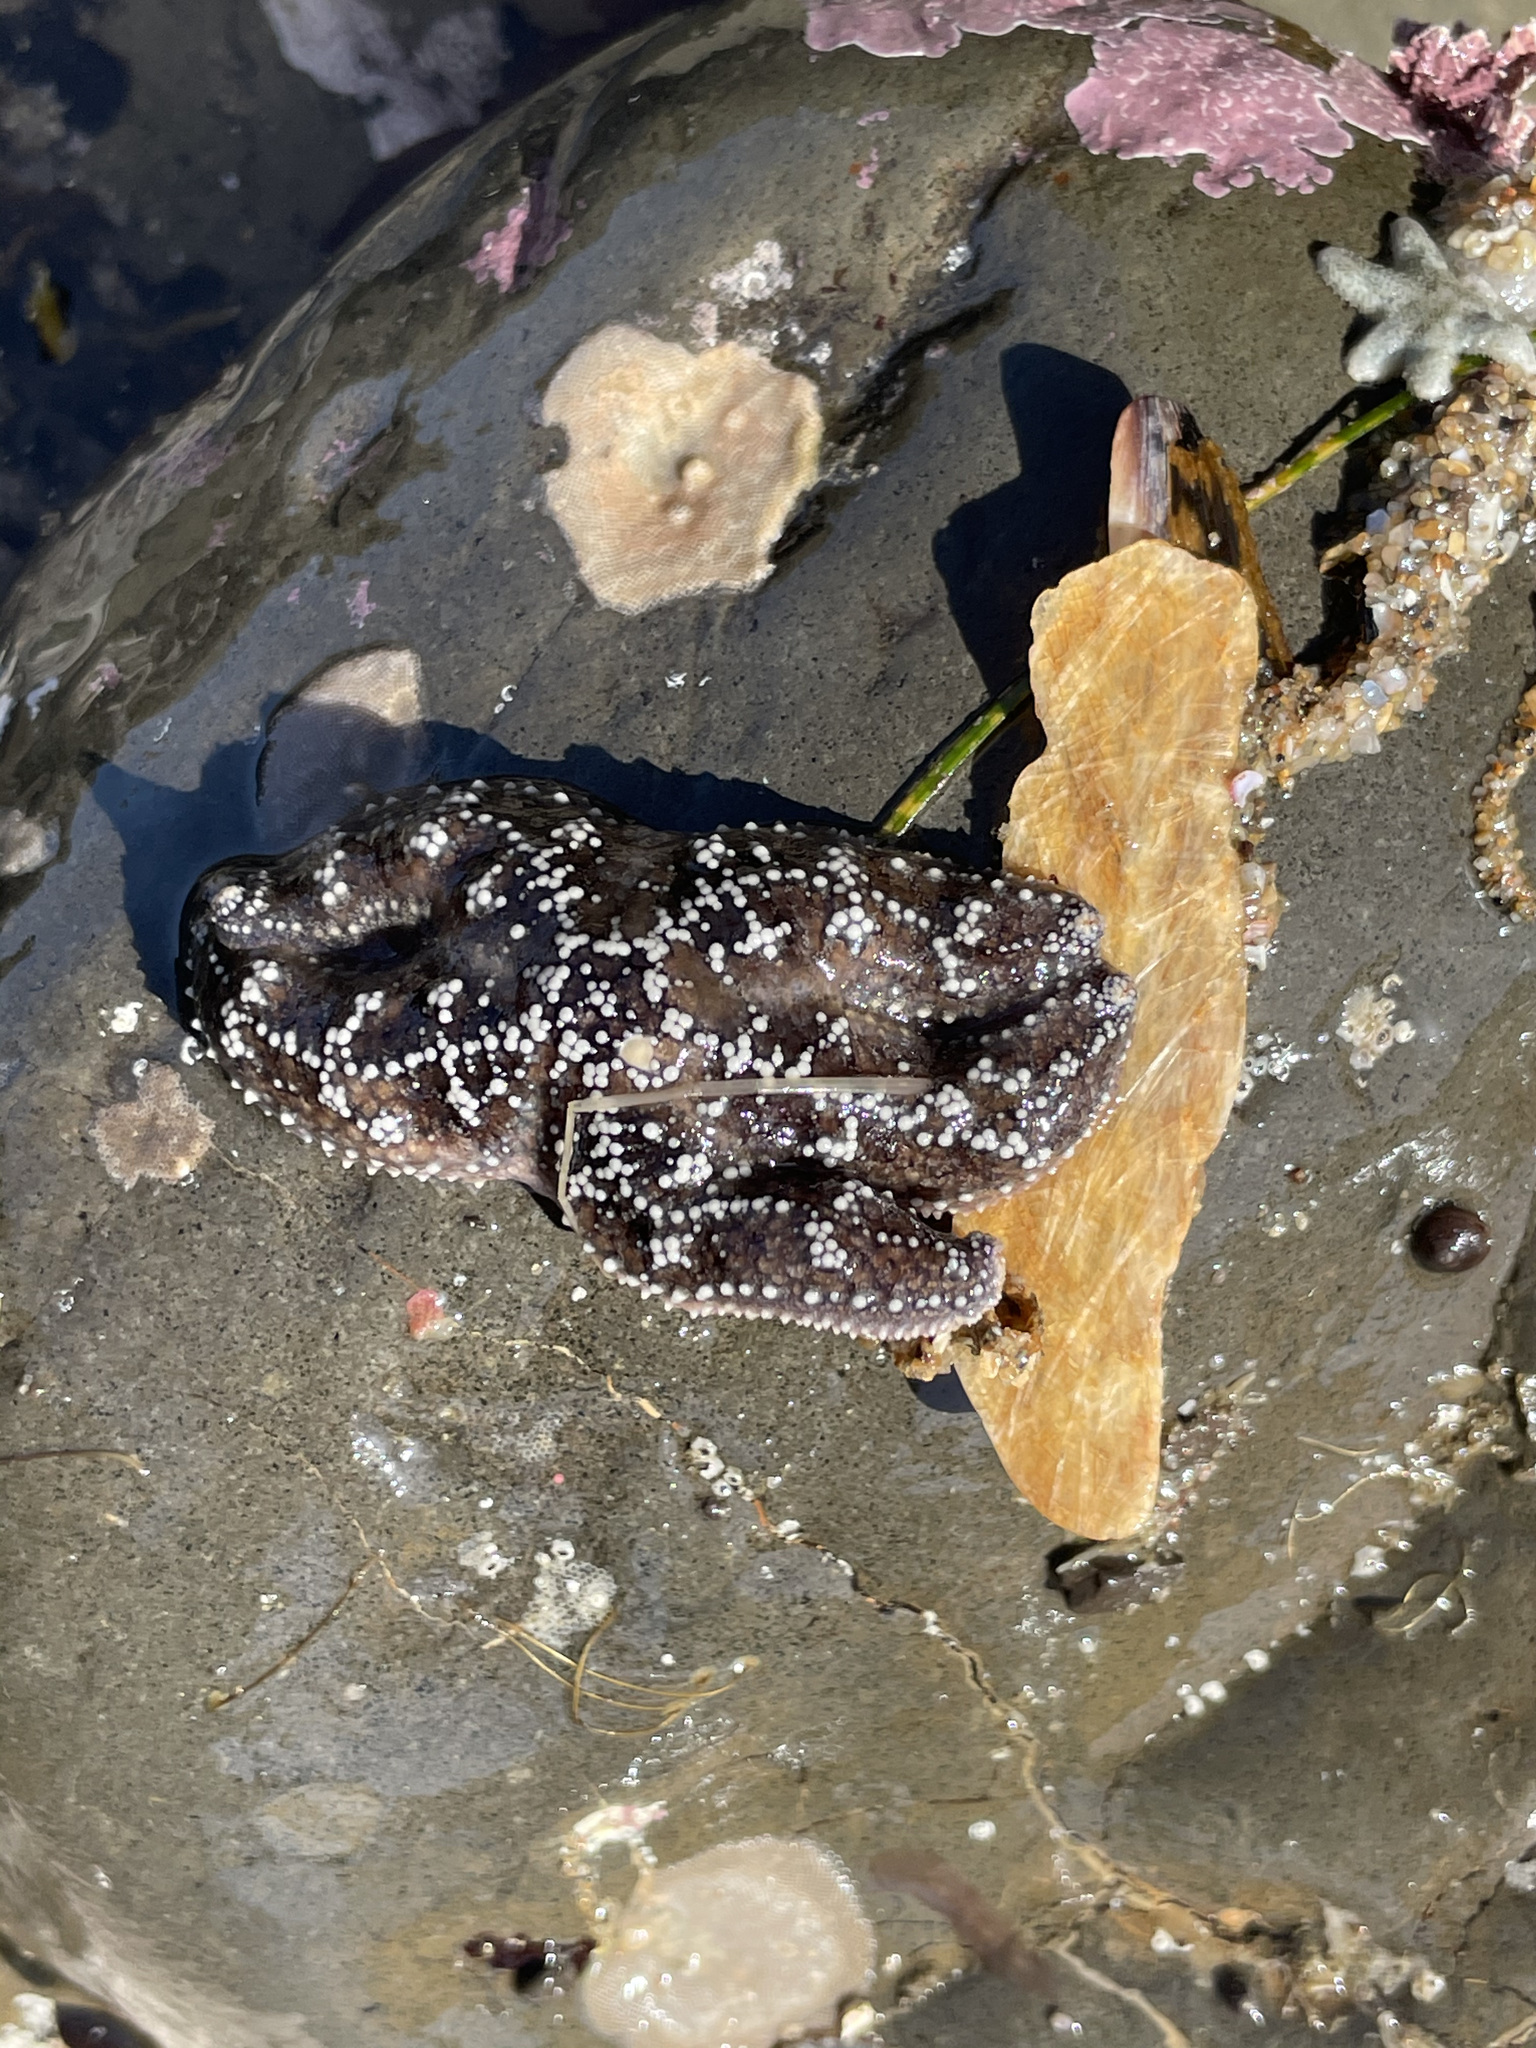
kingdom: Animalia
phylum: Echinodermata
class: Asteroidea
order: Forcipulatida
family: Asteriidae
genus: Pisaster
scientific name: Pisaster ochraceus
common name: Ochre stars
